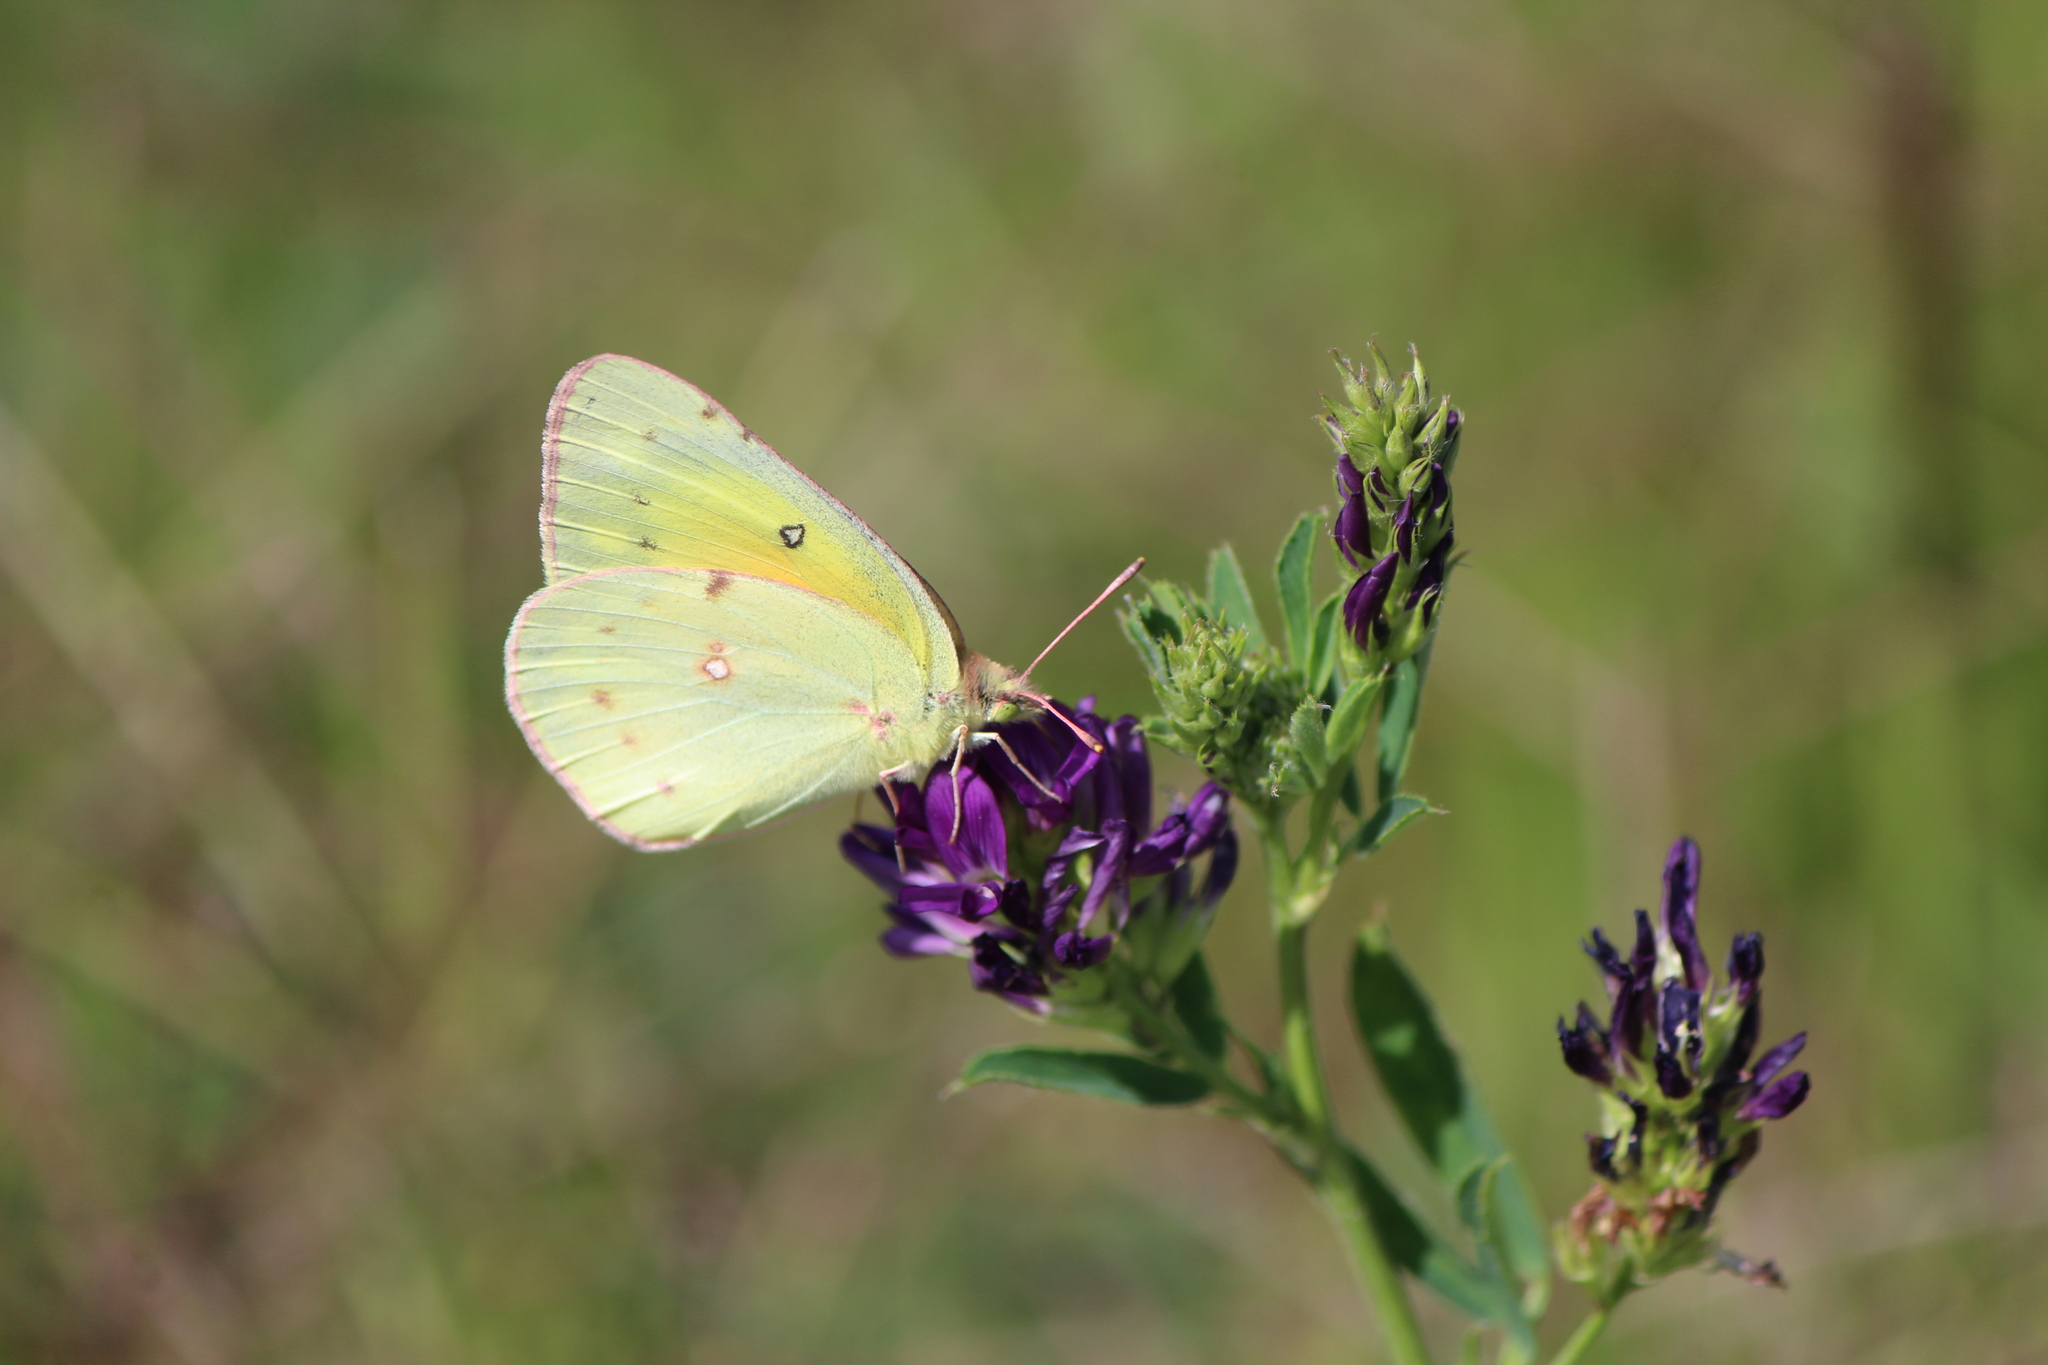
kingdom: Animalia
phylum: Arthropoda
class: Insecta
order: Lepidoptera
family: Pieridae
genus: Colias
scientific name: Colias eurytheme
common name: Alfalfa butterfly
